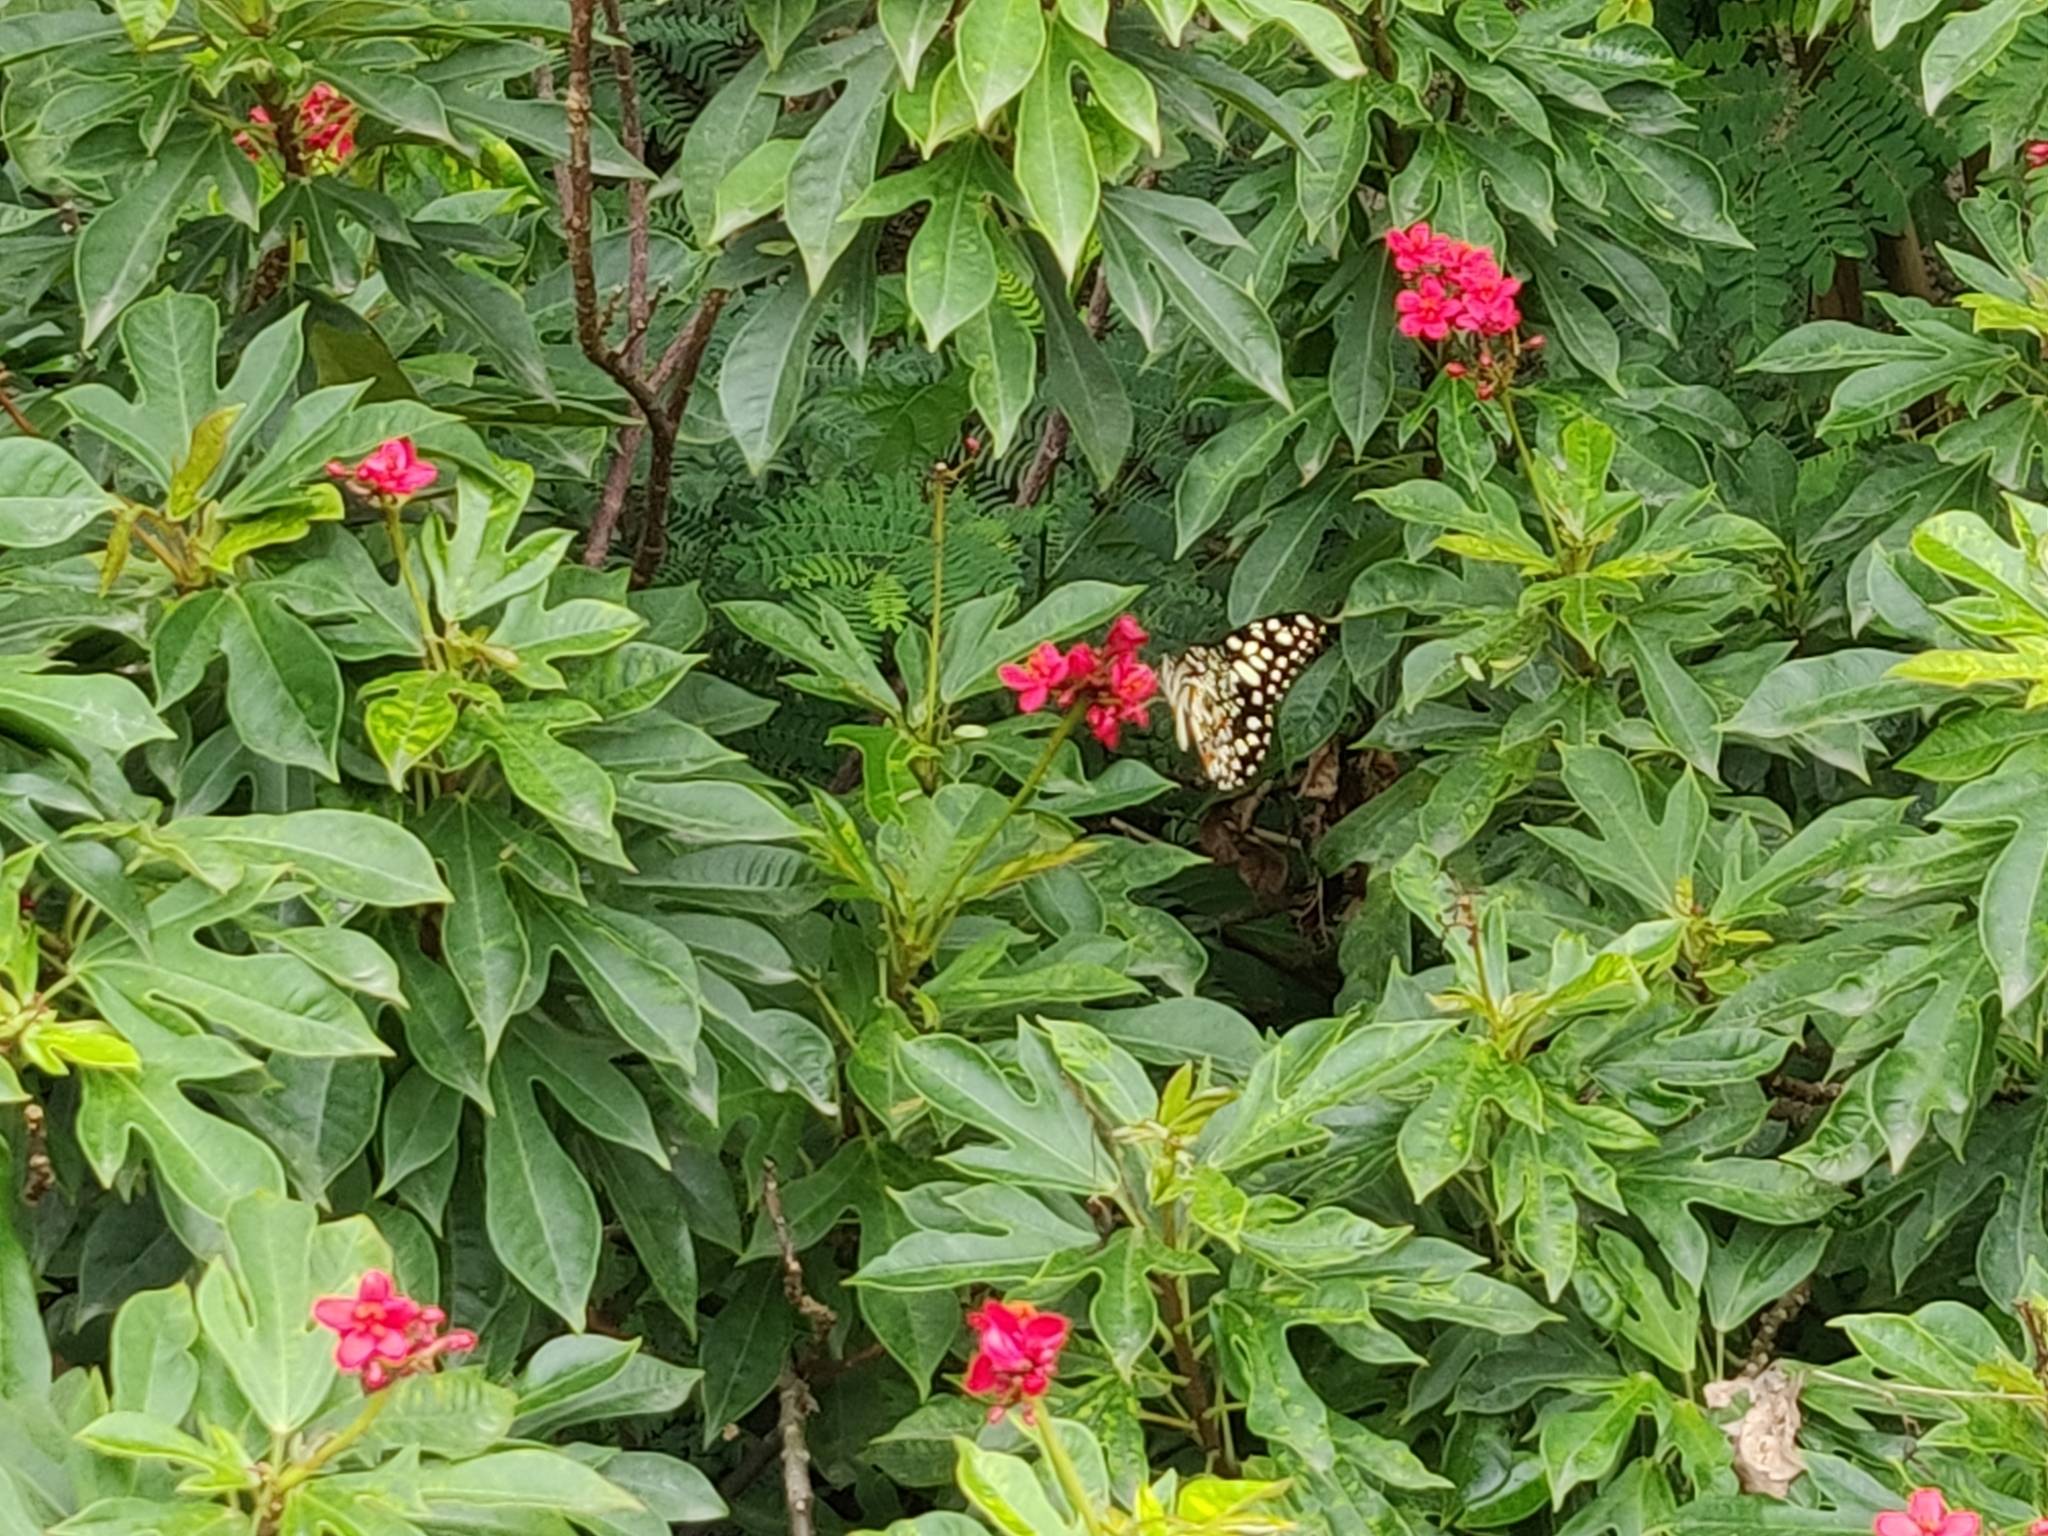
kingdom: Animalia
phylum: Arthropoda
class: Insecta
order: Lepidoptera
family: Papilionidae
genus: Papilio
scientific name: Papilio demoleus
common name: Lime butterfly
